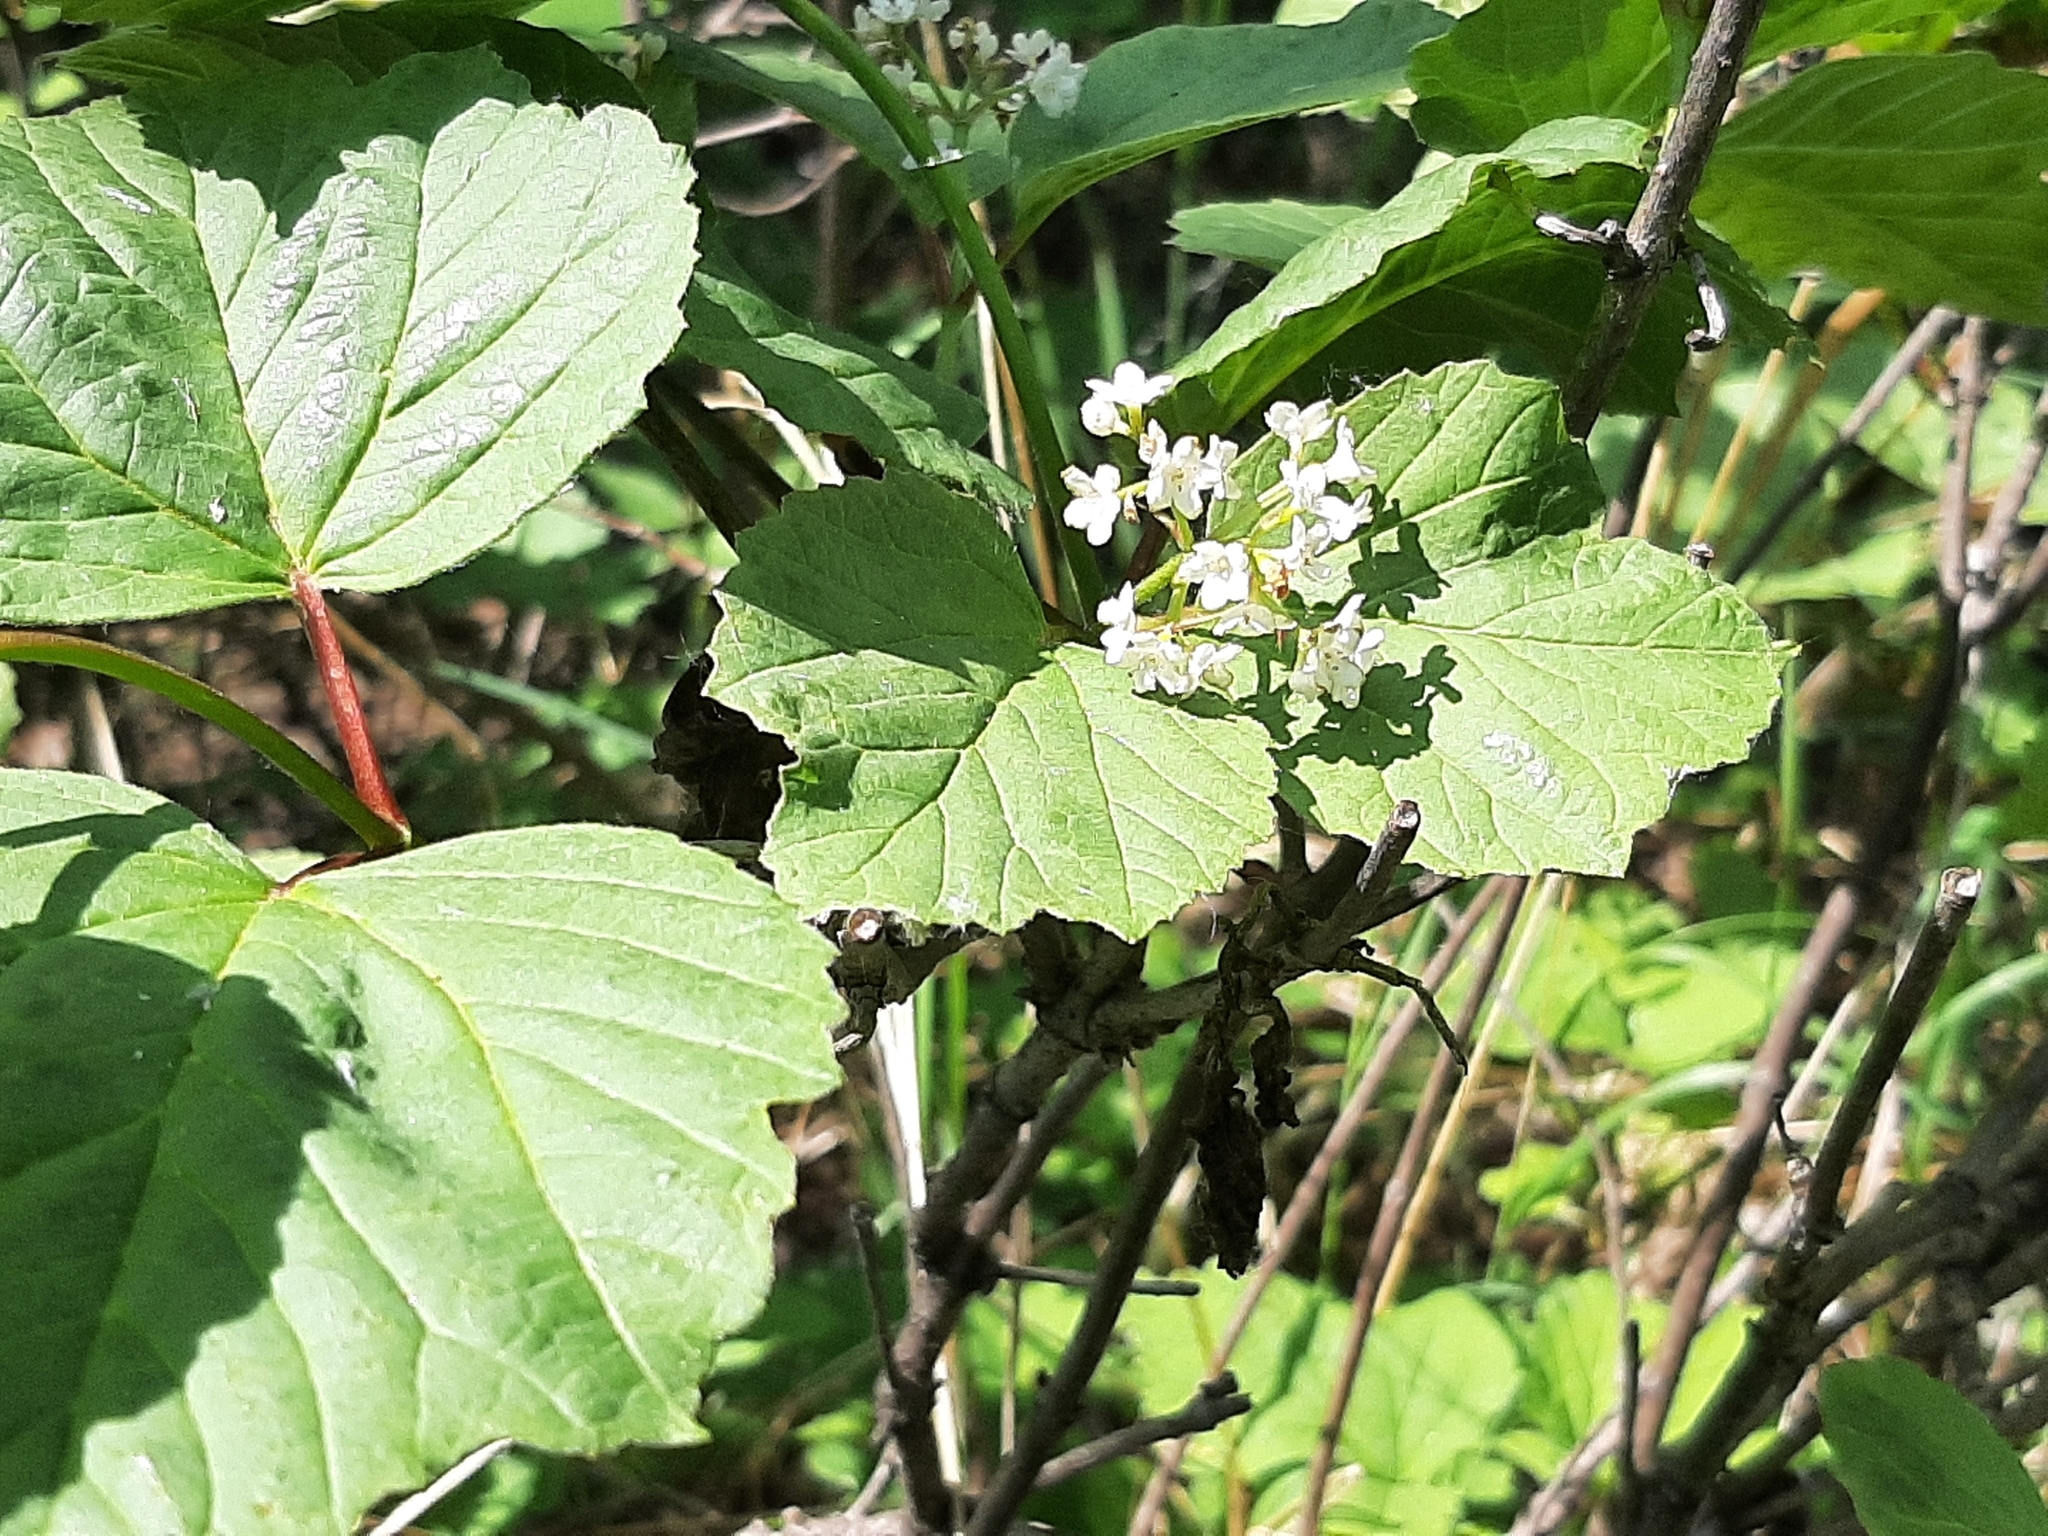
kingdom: Plantae
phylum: Tracheophyta
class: Magnoliopsida
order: Dipsacales
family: Viburnaceae
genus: Viburnum
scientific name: Viburnum edule
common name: Mooseberry
